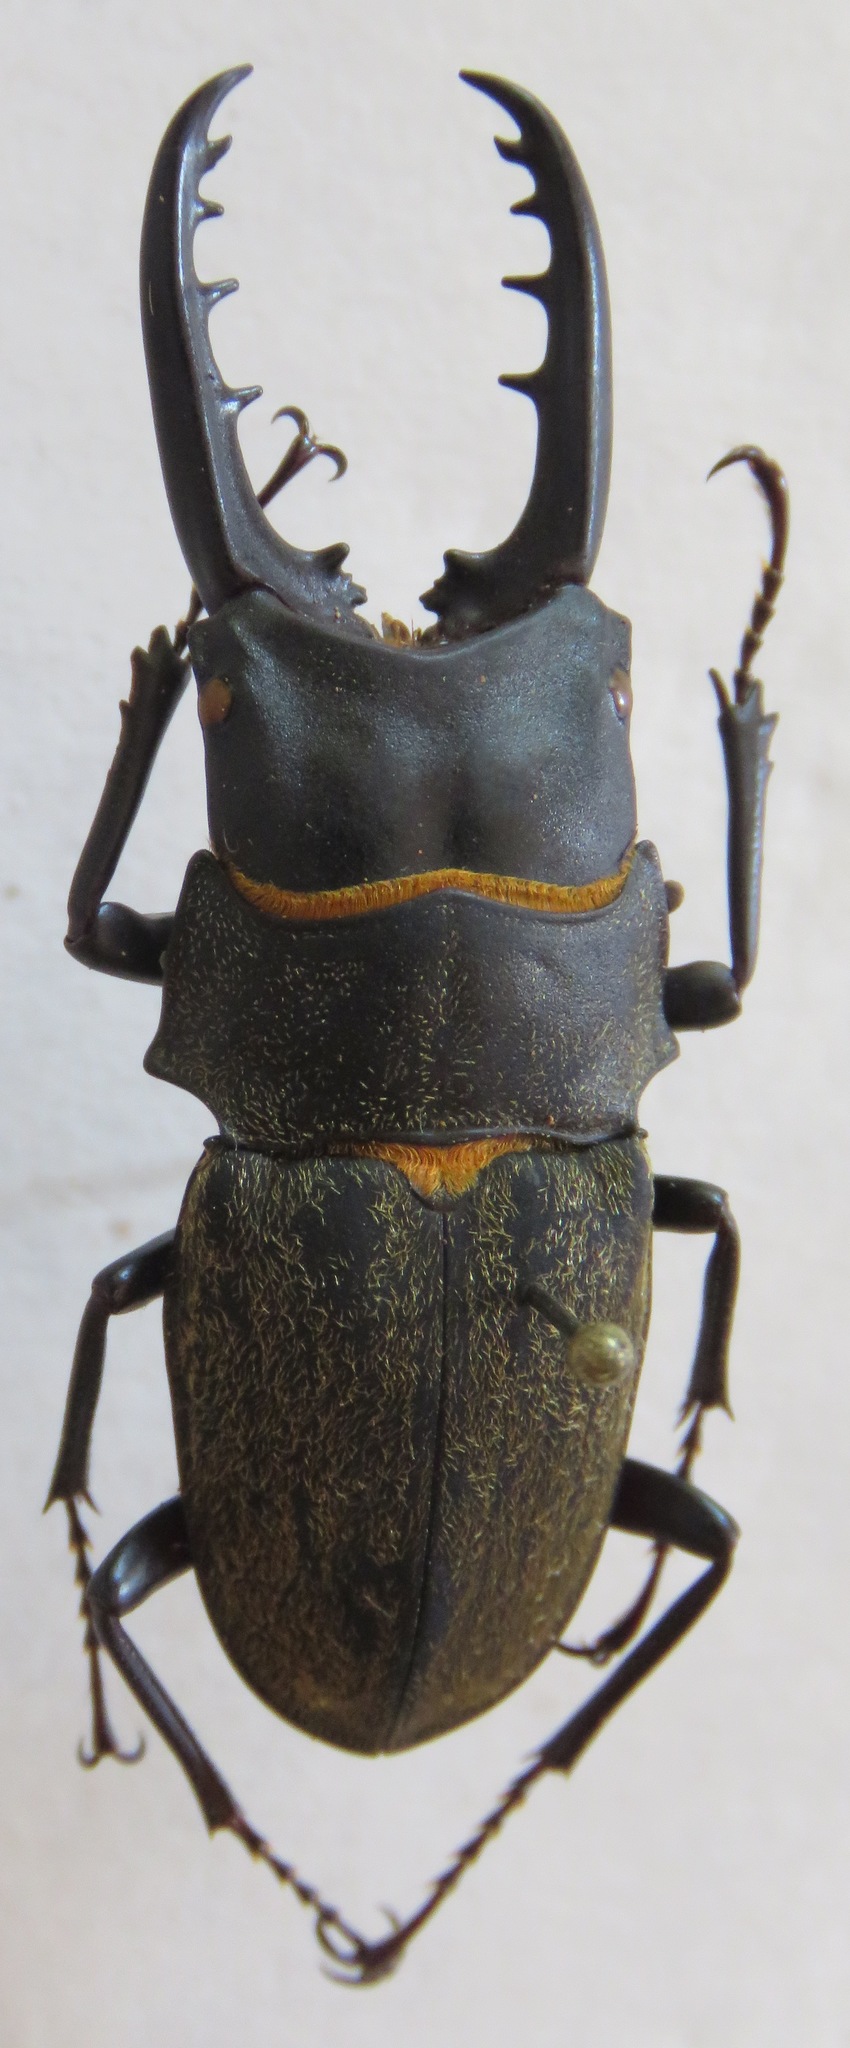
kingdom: Animalia
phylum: Arthropoda
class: Insecta
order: Coleoptera
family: Lucanidae
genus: Leptinopterus
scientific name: Leptinopterus fryi
